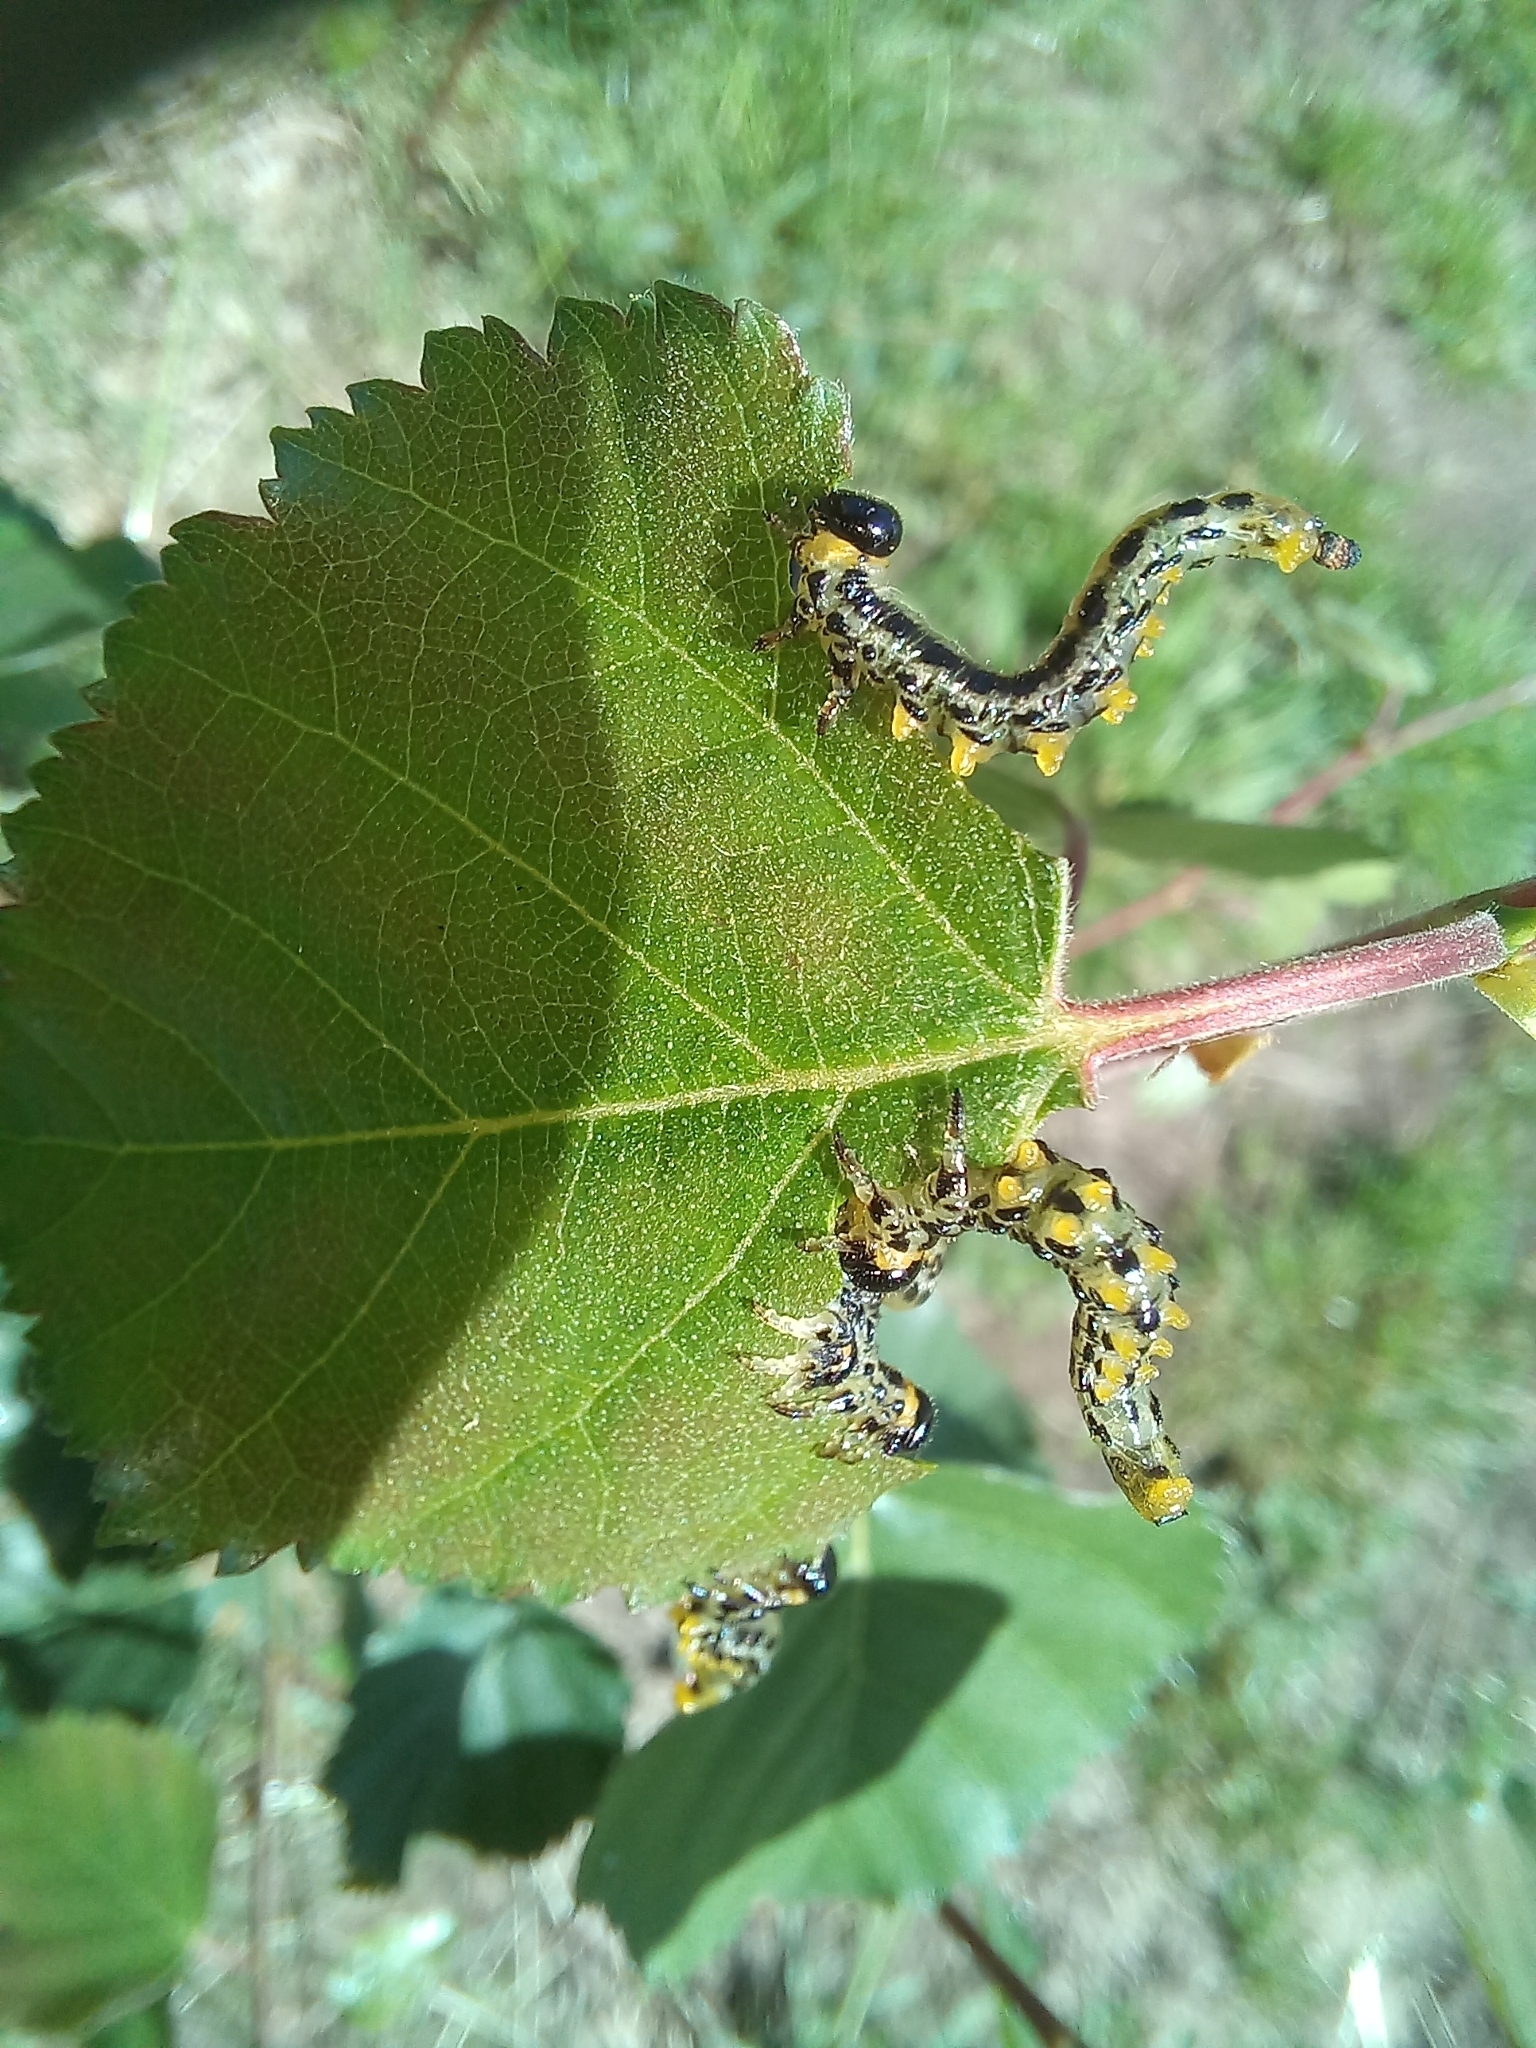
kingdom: Animalia
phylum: Arthropoda
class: Insecta
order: Hymenoptera
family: Tenthredinidae
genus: Craesus
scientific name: Craesus septentrionalis
